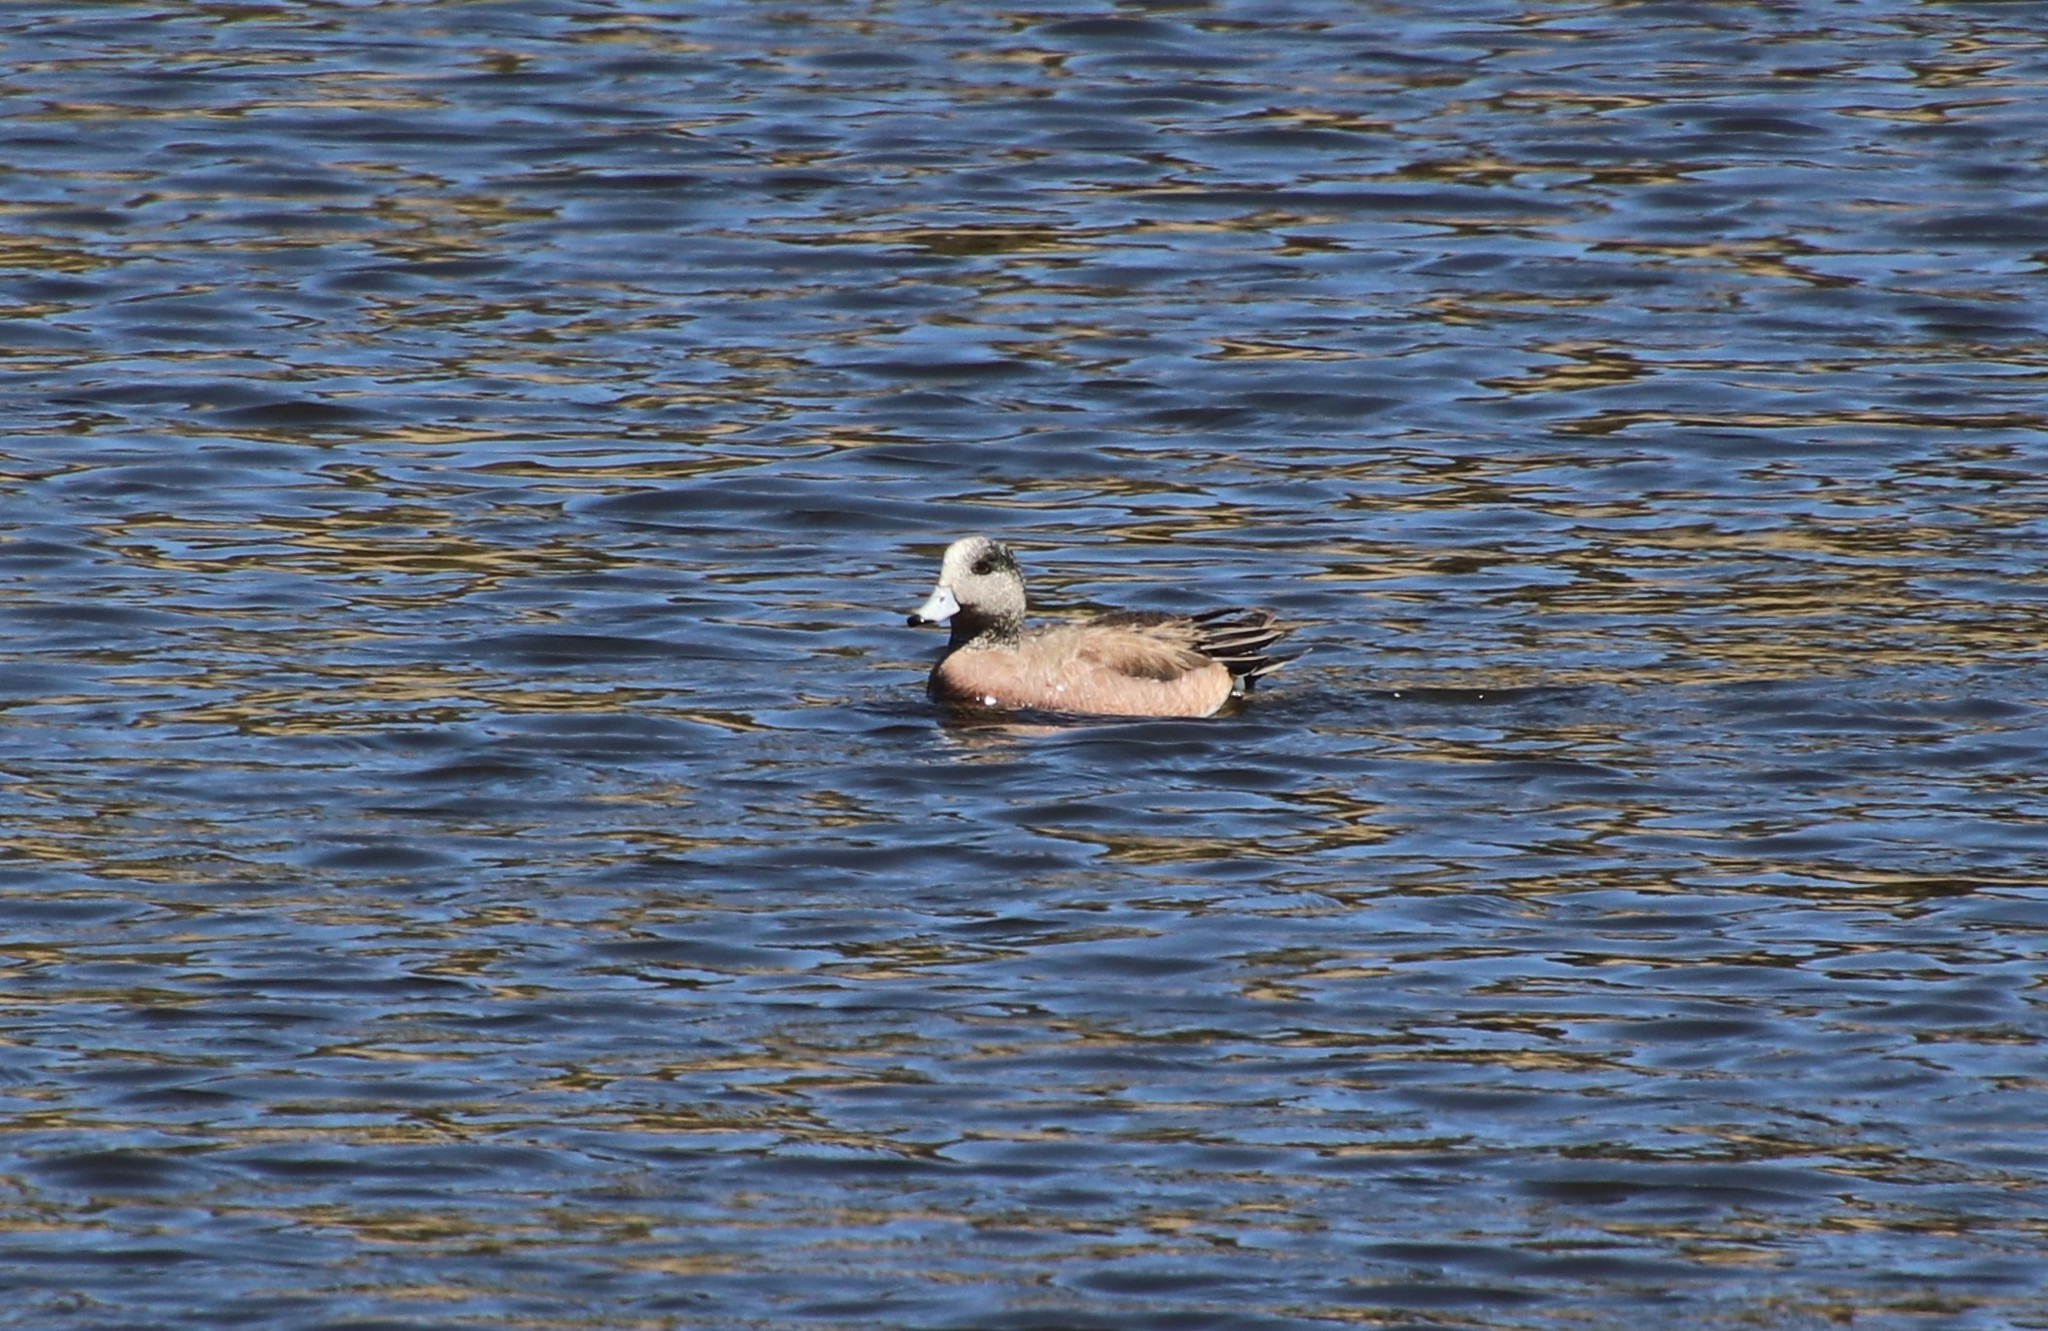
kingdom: Animalia
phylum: Chordata
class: Aves
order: Anseriformes
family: Anatidae
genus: Mareca
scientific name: Mareca americana
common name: American wigeon
